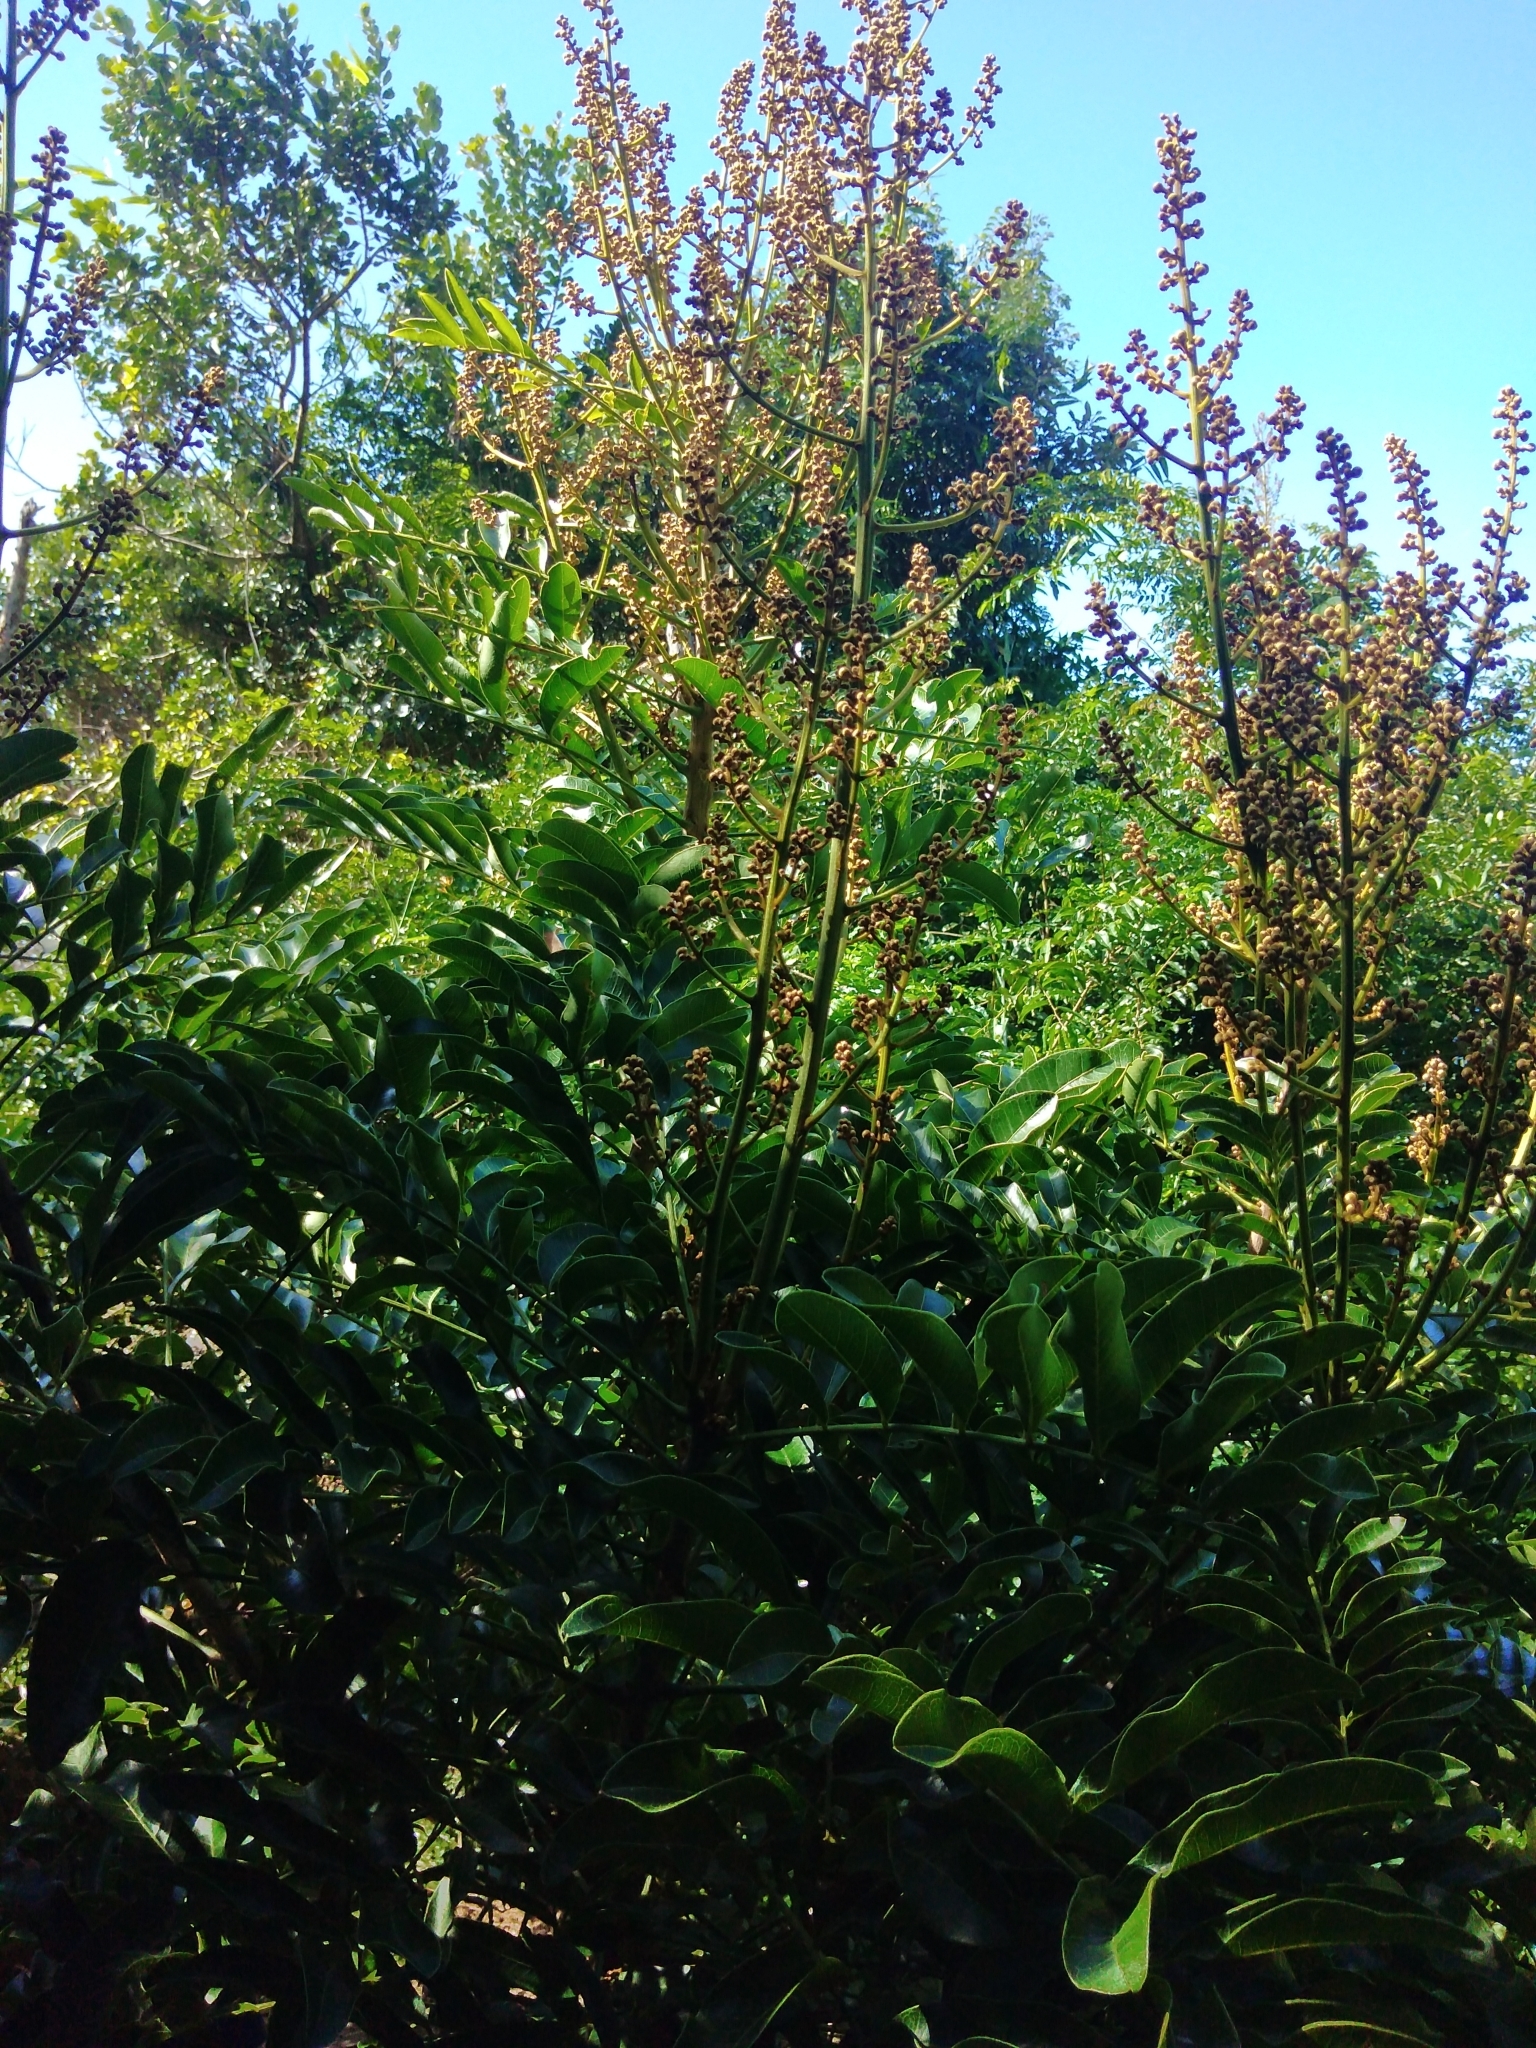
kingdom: Plantae
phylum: Tracheophyta
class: Magnoliopsida
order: Sapindales
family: Sapindaceae
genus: Deinbollia
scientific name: Deinbollia oblongifolia
